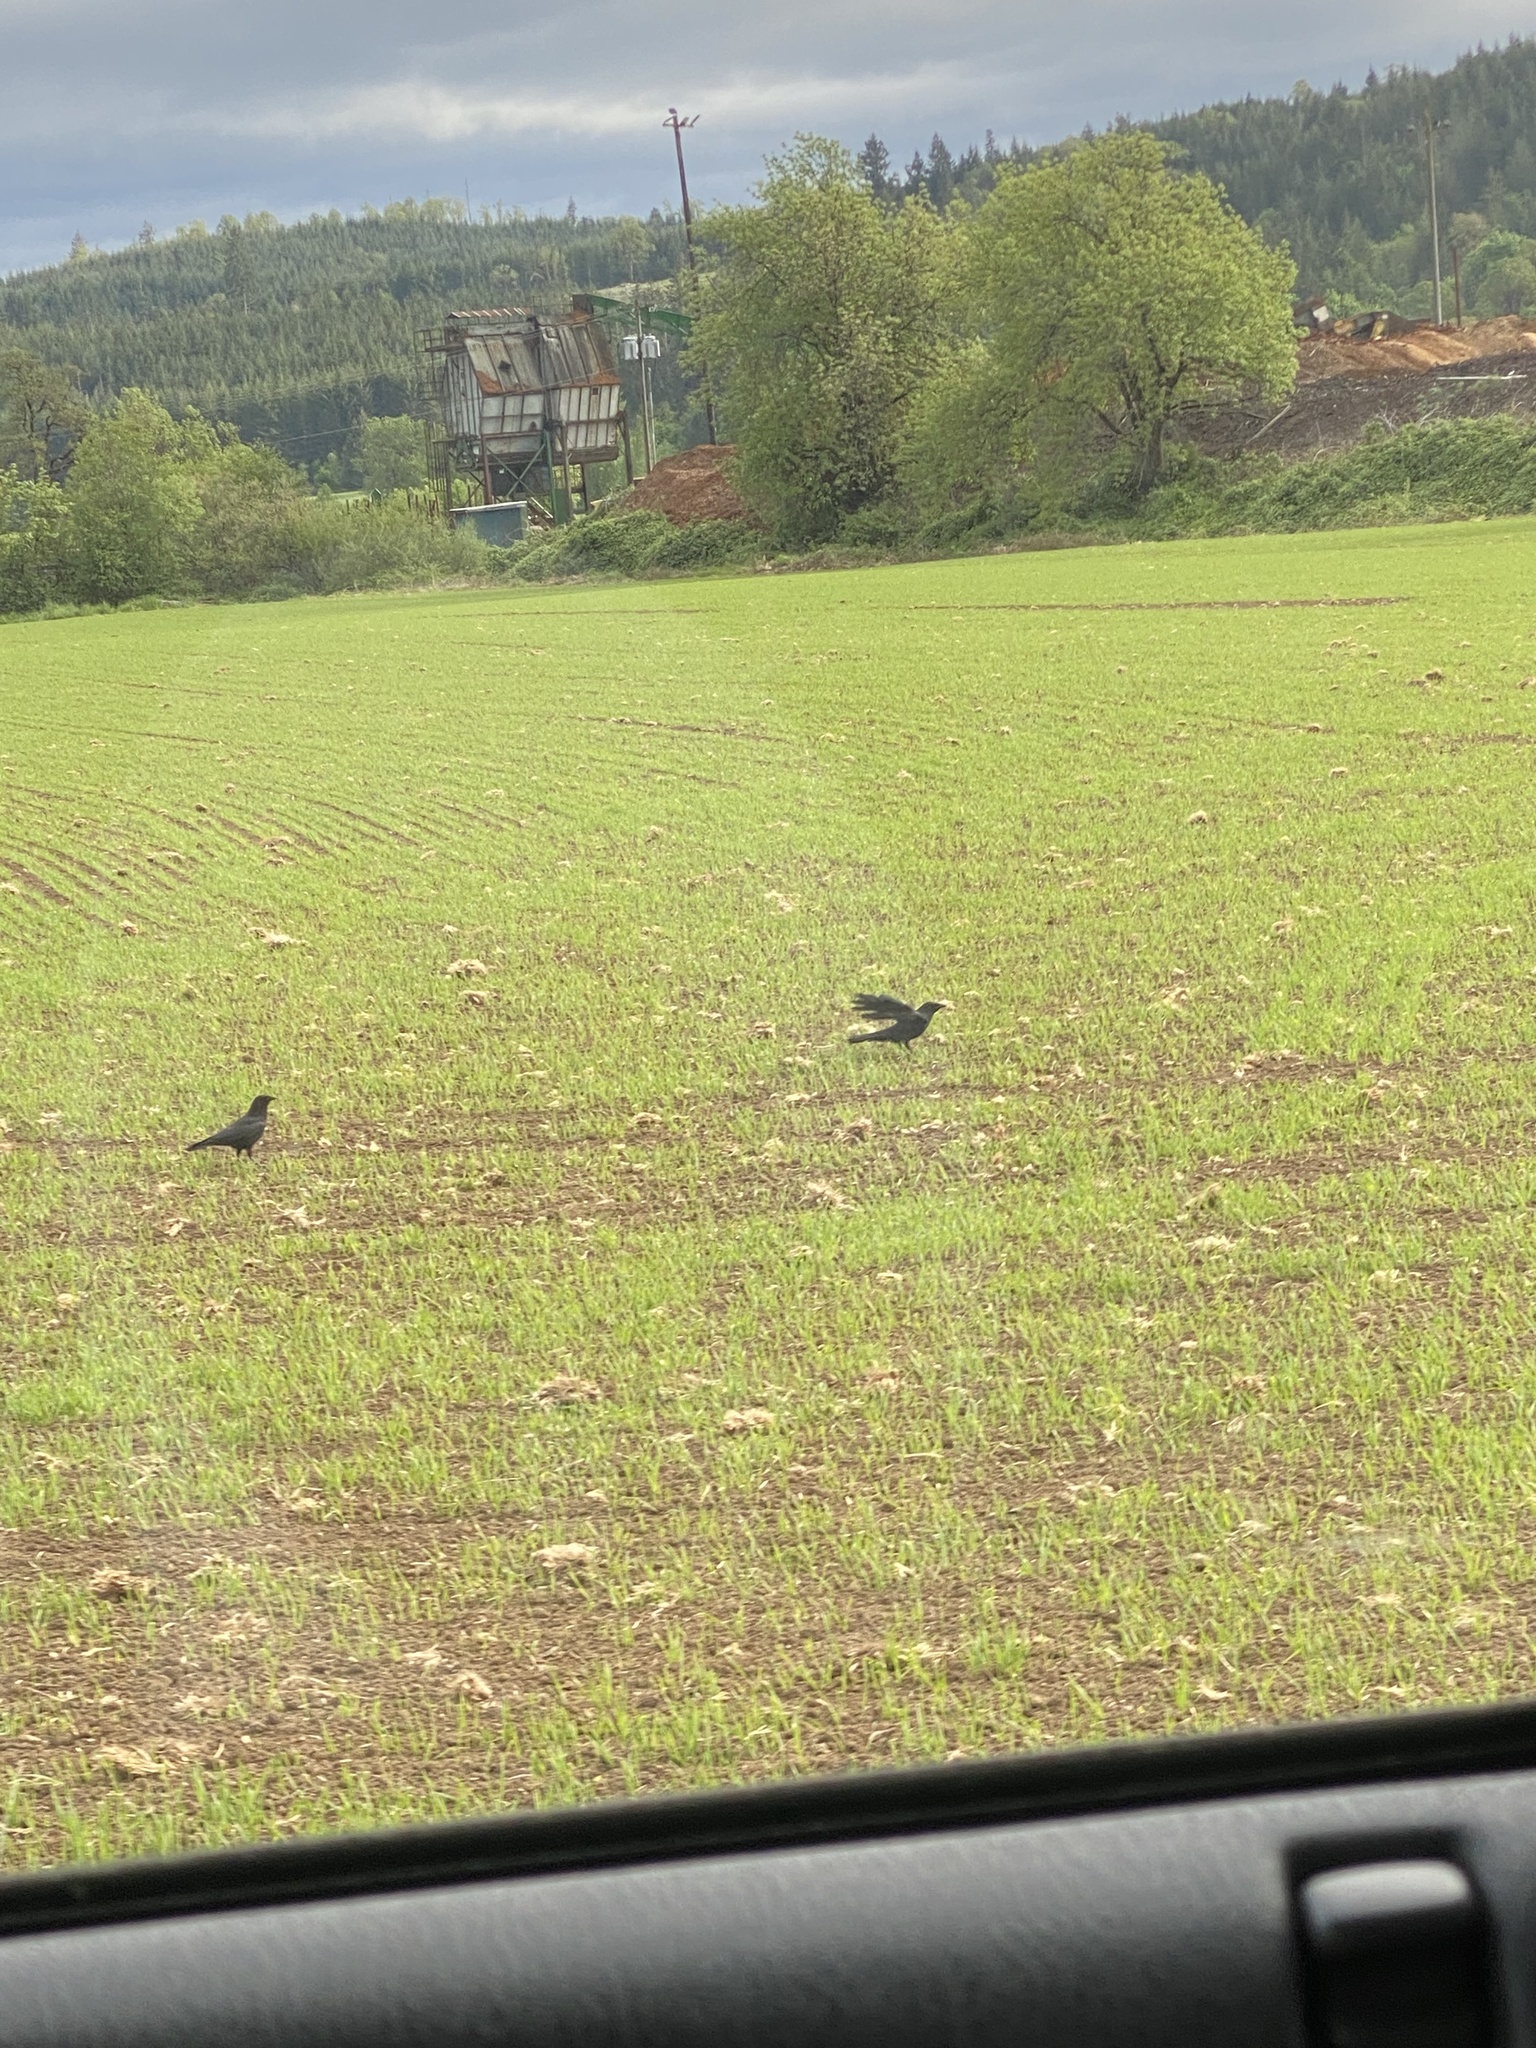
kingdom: Animalia
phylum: Chordata
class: Aves
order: Passeriformes
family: Corvidae
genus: Corvus
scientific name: Corvus brachyrhynchos
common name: American crow
